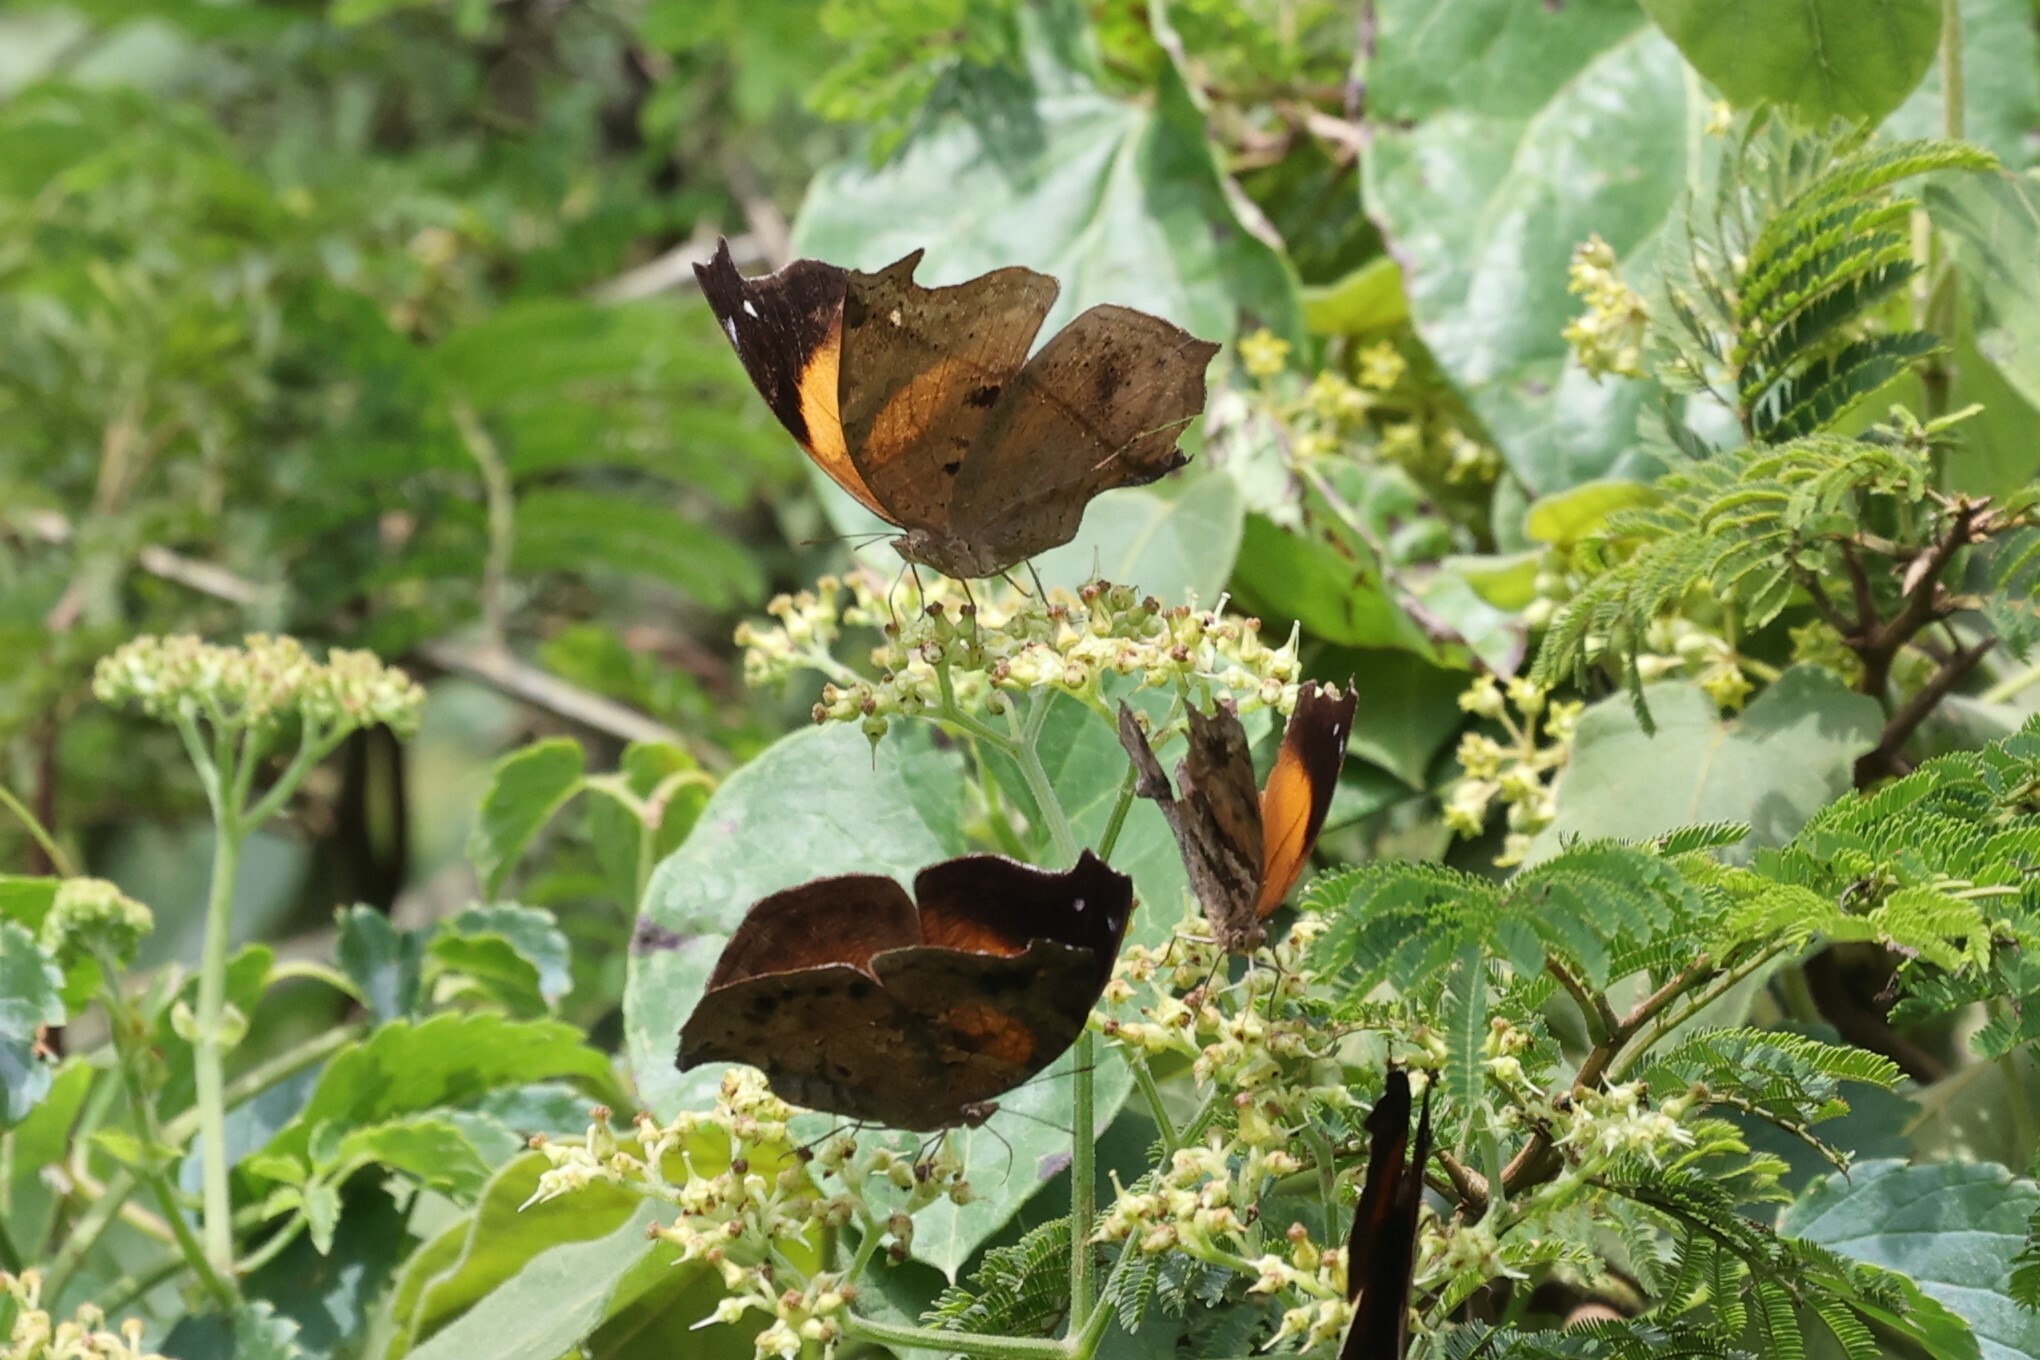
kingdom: Animalia
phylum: Arthropoda
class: Insecta
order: Lepidoptera
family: Nymphalidae
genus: Salamis
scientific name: Salamis cacta
